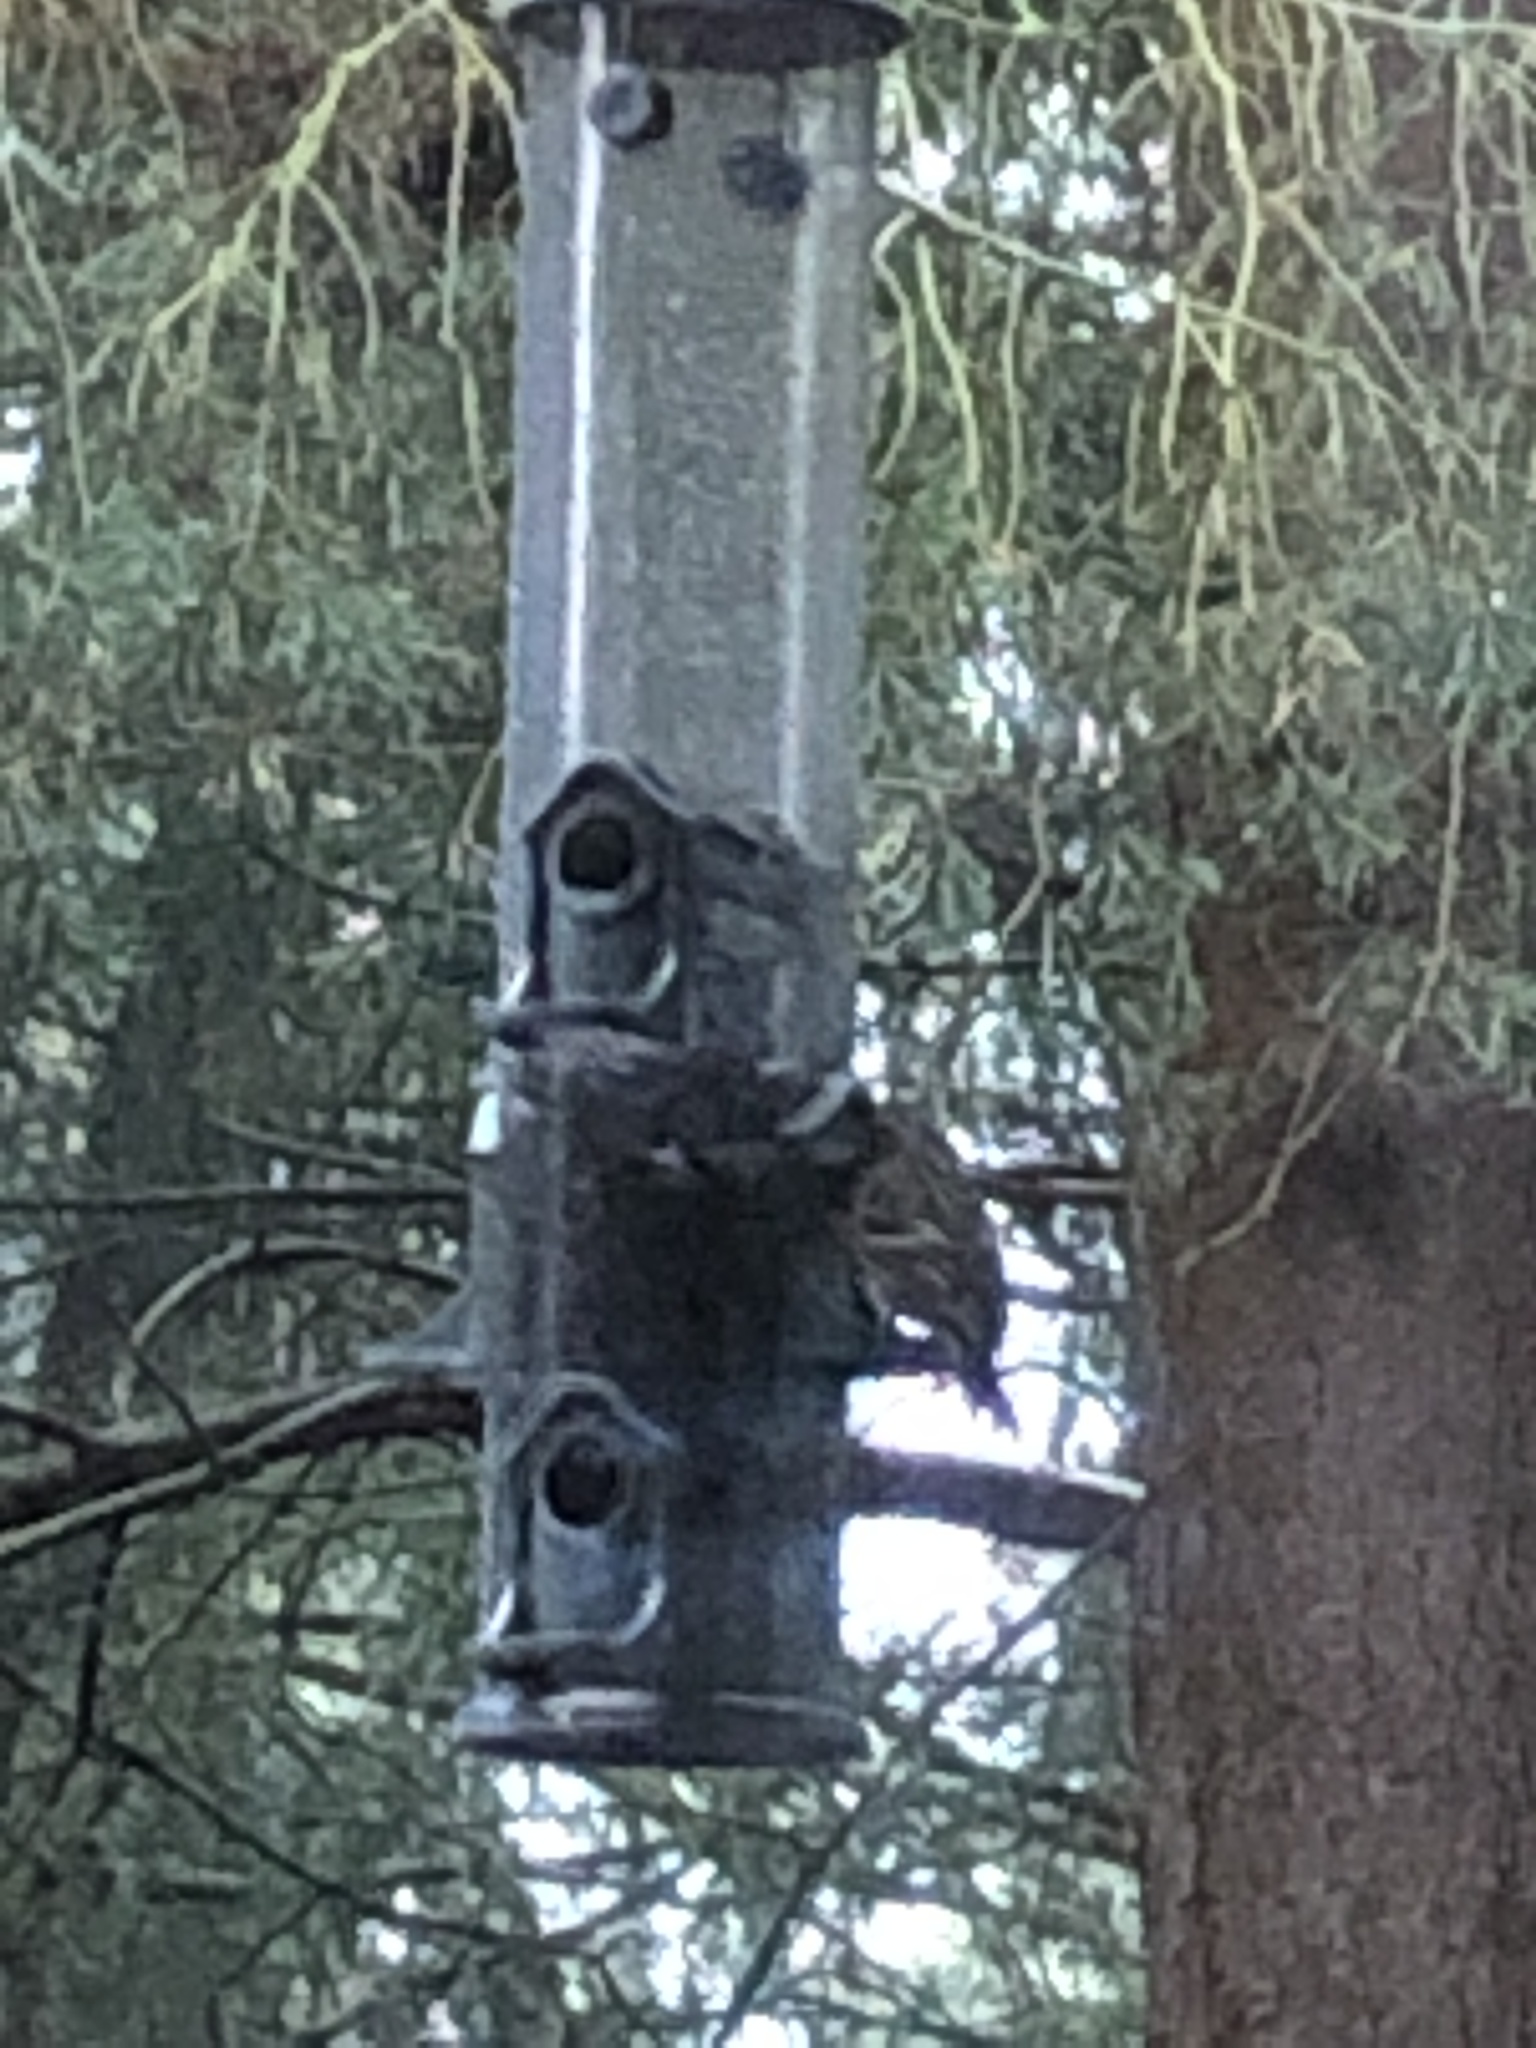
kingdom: Animalia
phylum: Chordata
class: Aves
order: Passeriformes
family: Fringillidae
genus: Haemorhous
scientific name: Haemorhous mexicanus
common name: House finch
